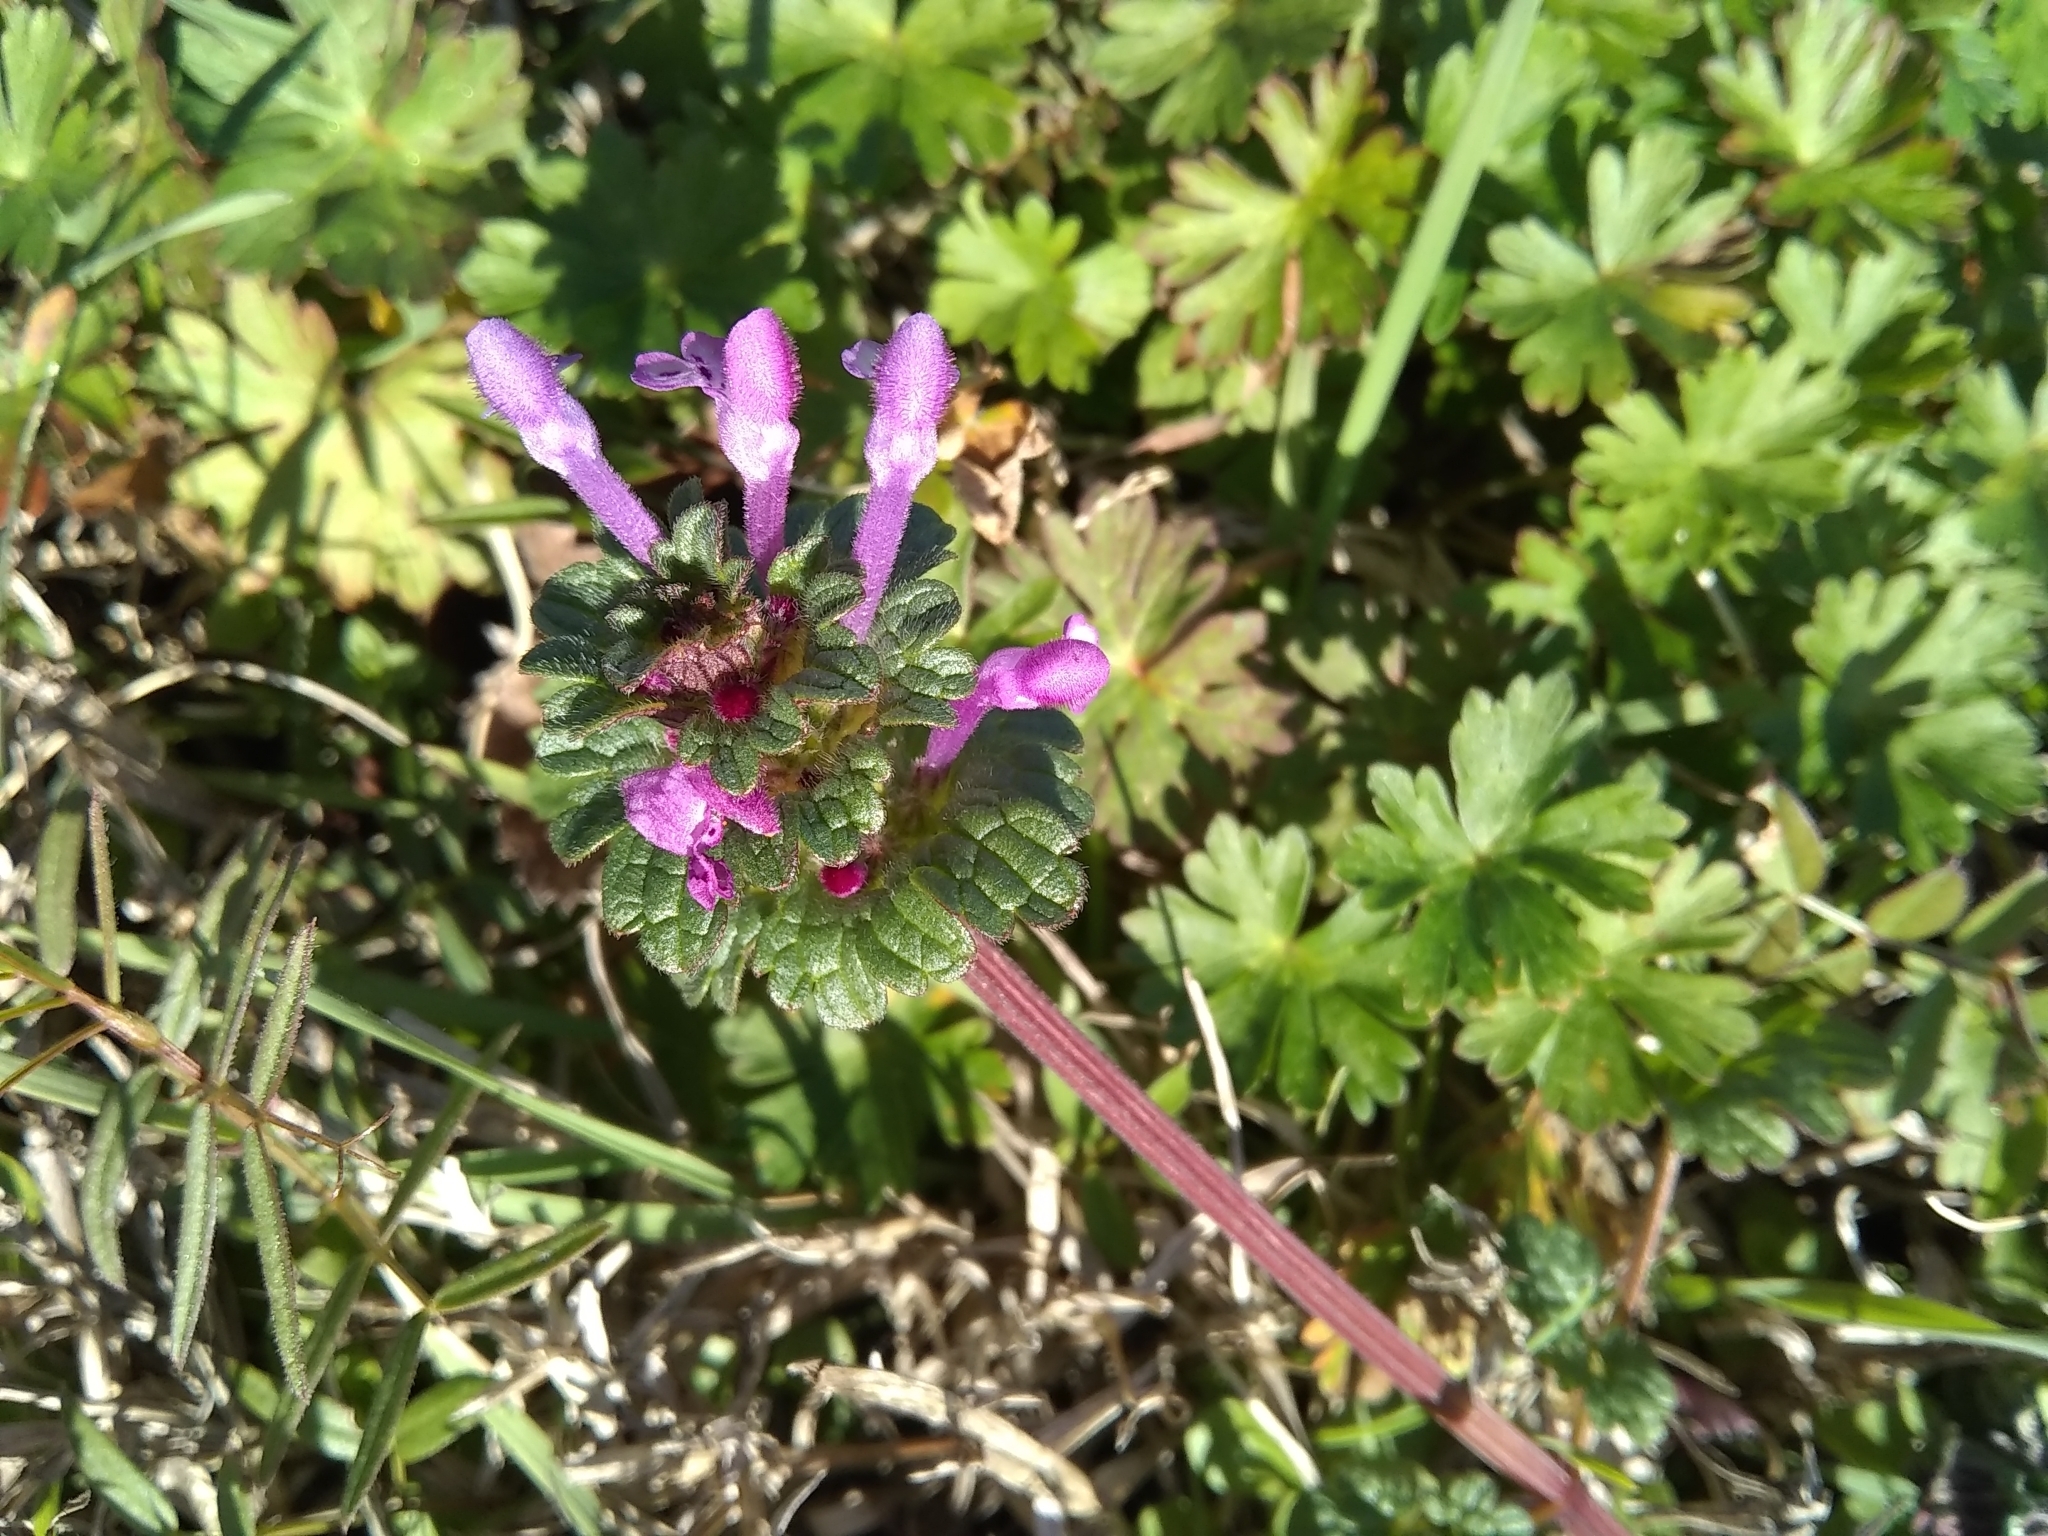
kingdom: Plantae
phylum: Tracheophyta
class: Magnoliopsida
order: Lamiales
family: Lamiaceae
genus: Lamium
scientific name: Lamium amplexicaule
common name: Henbit dead-nettle
